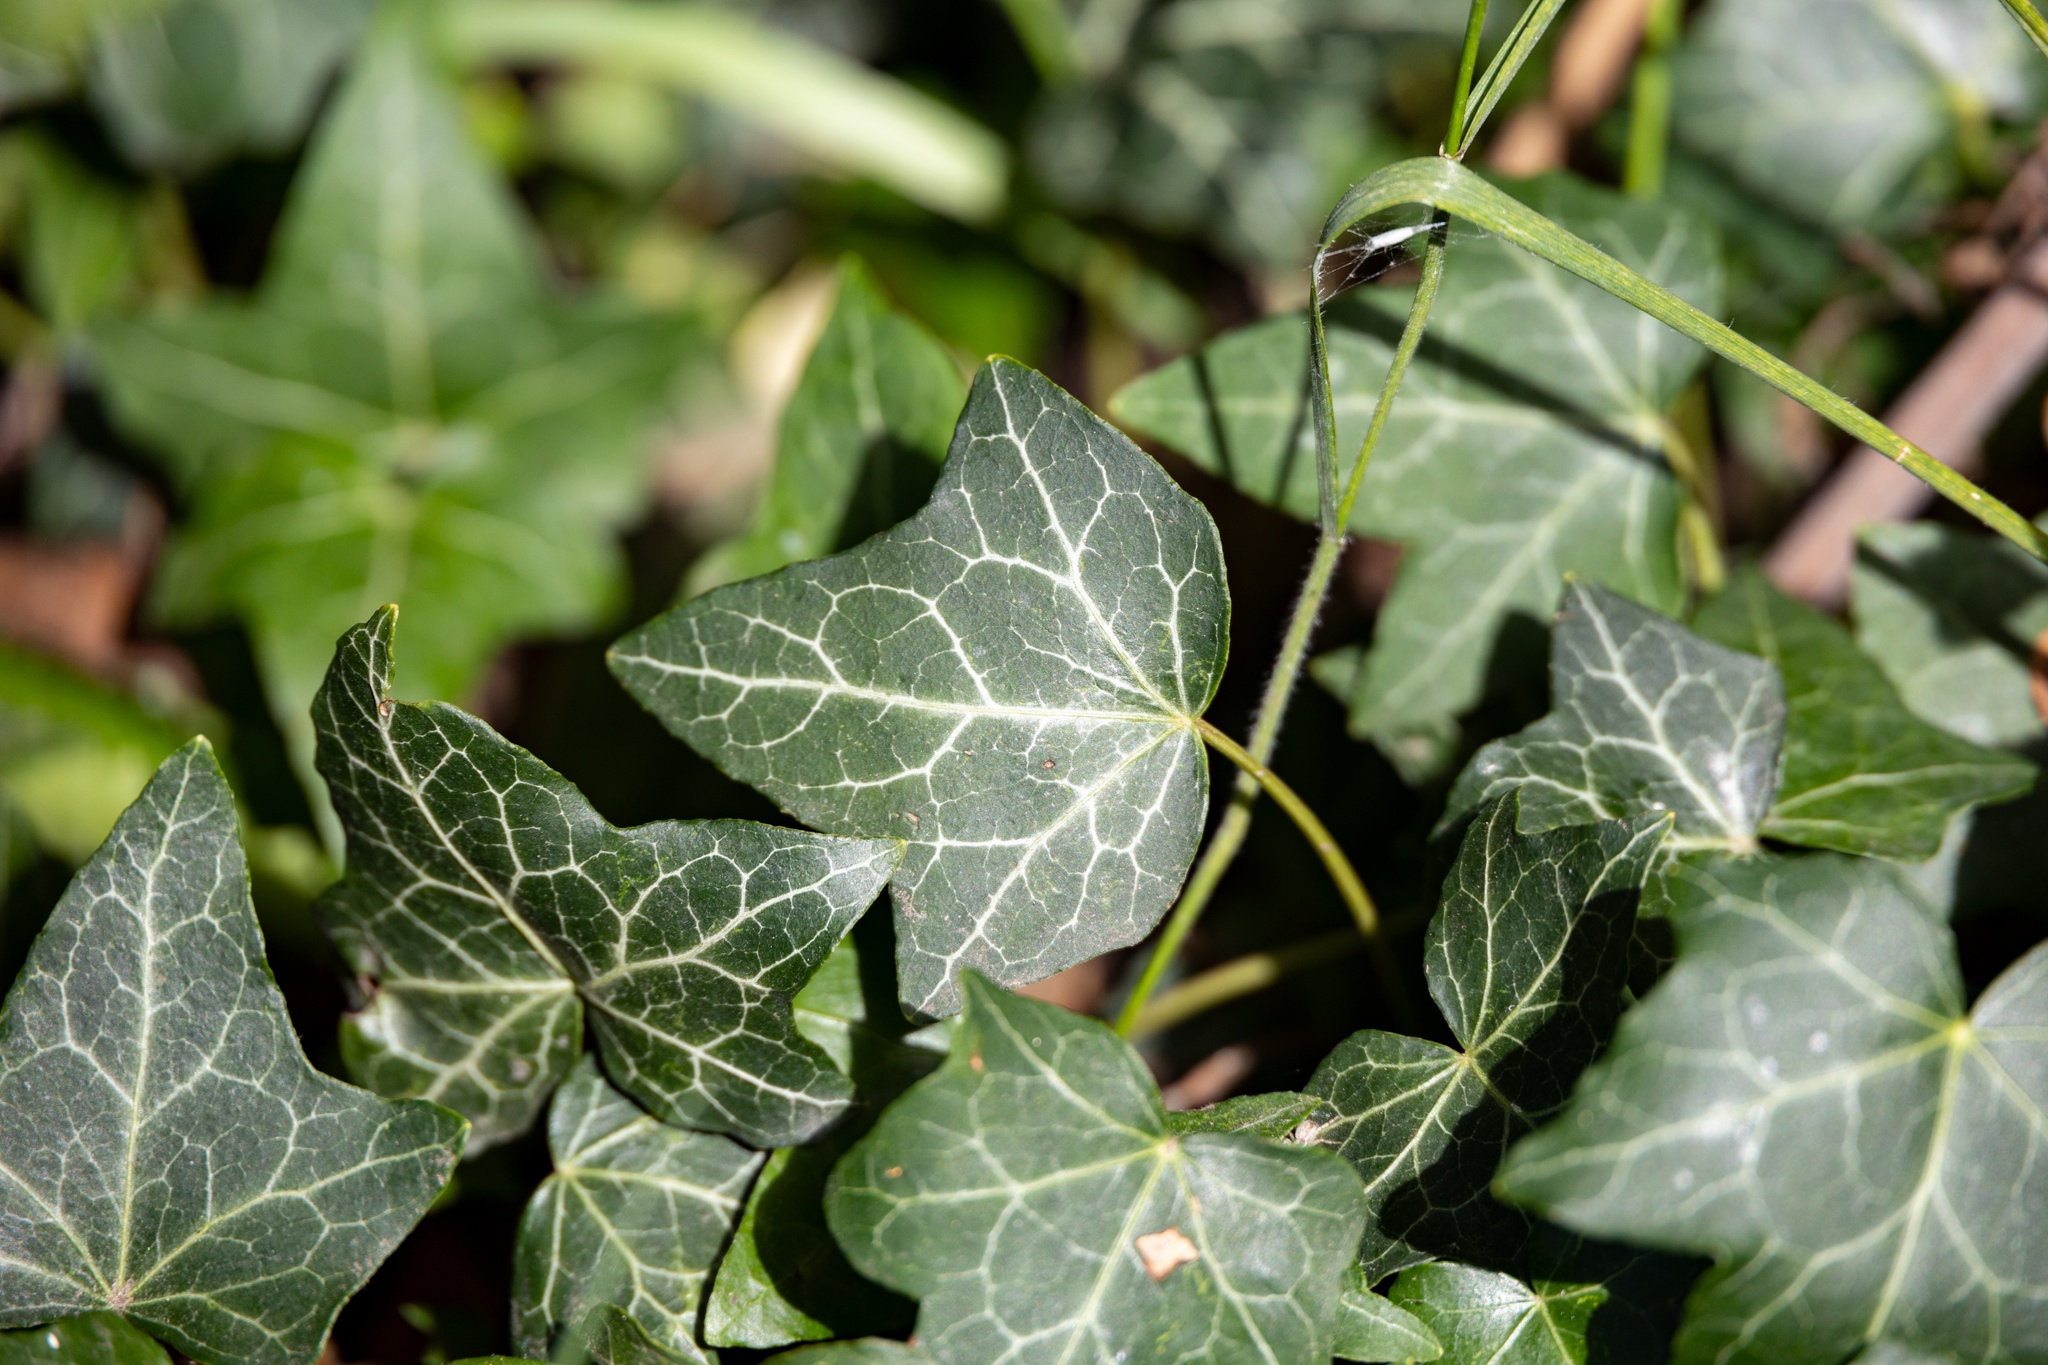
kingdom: Plantae
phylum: Tracheophyta
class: Magnoliopsida
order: Apiales
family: Araliaceae
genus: Hedera
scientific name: Hedera helix
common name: Ivy
